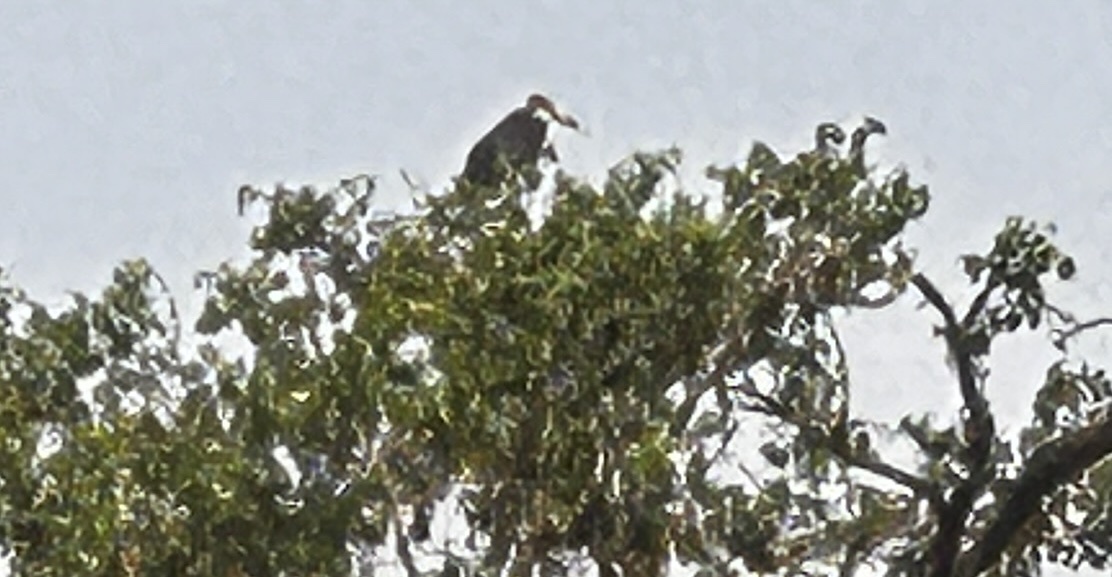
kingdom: Animalia
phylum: Chordata
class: Aves
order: Ciconiiformes
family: Ciconiidae
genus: Leptoptilos
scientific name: Leptoptilos crumenifer
